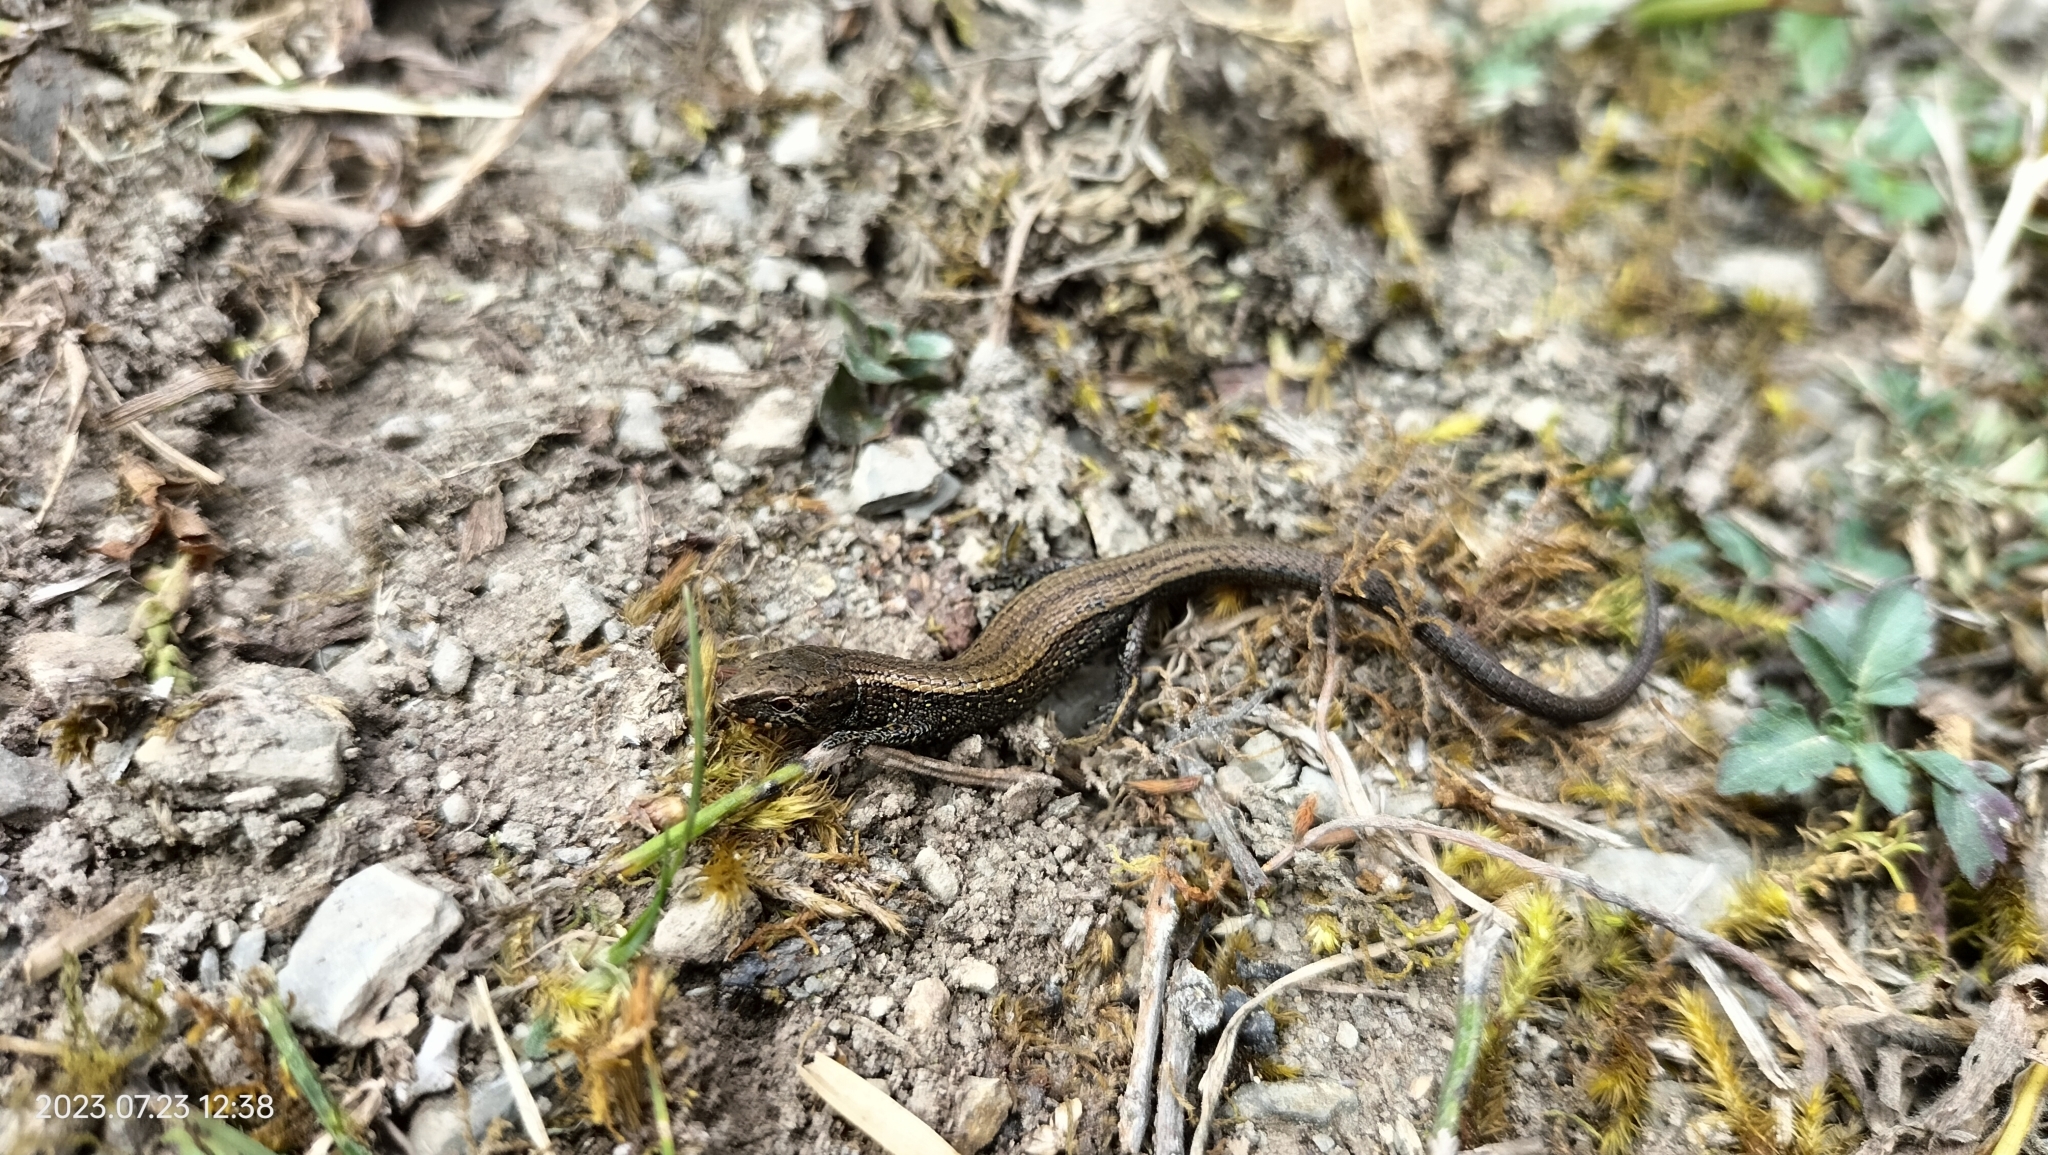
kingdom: Animalia
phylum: Chordata
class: Squamata
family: Gymnophthalmidae
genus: Proctoporus
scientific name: Proctoporus lacertus
